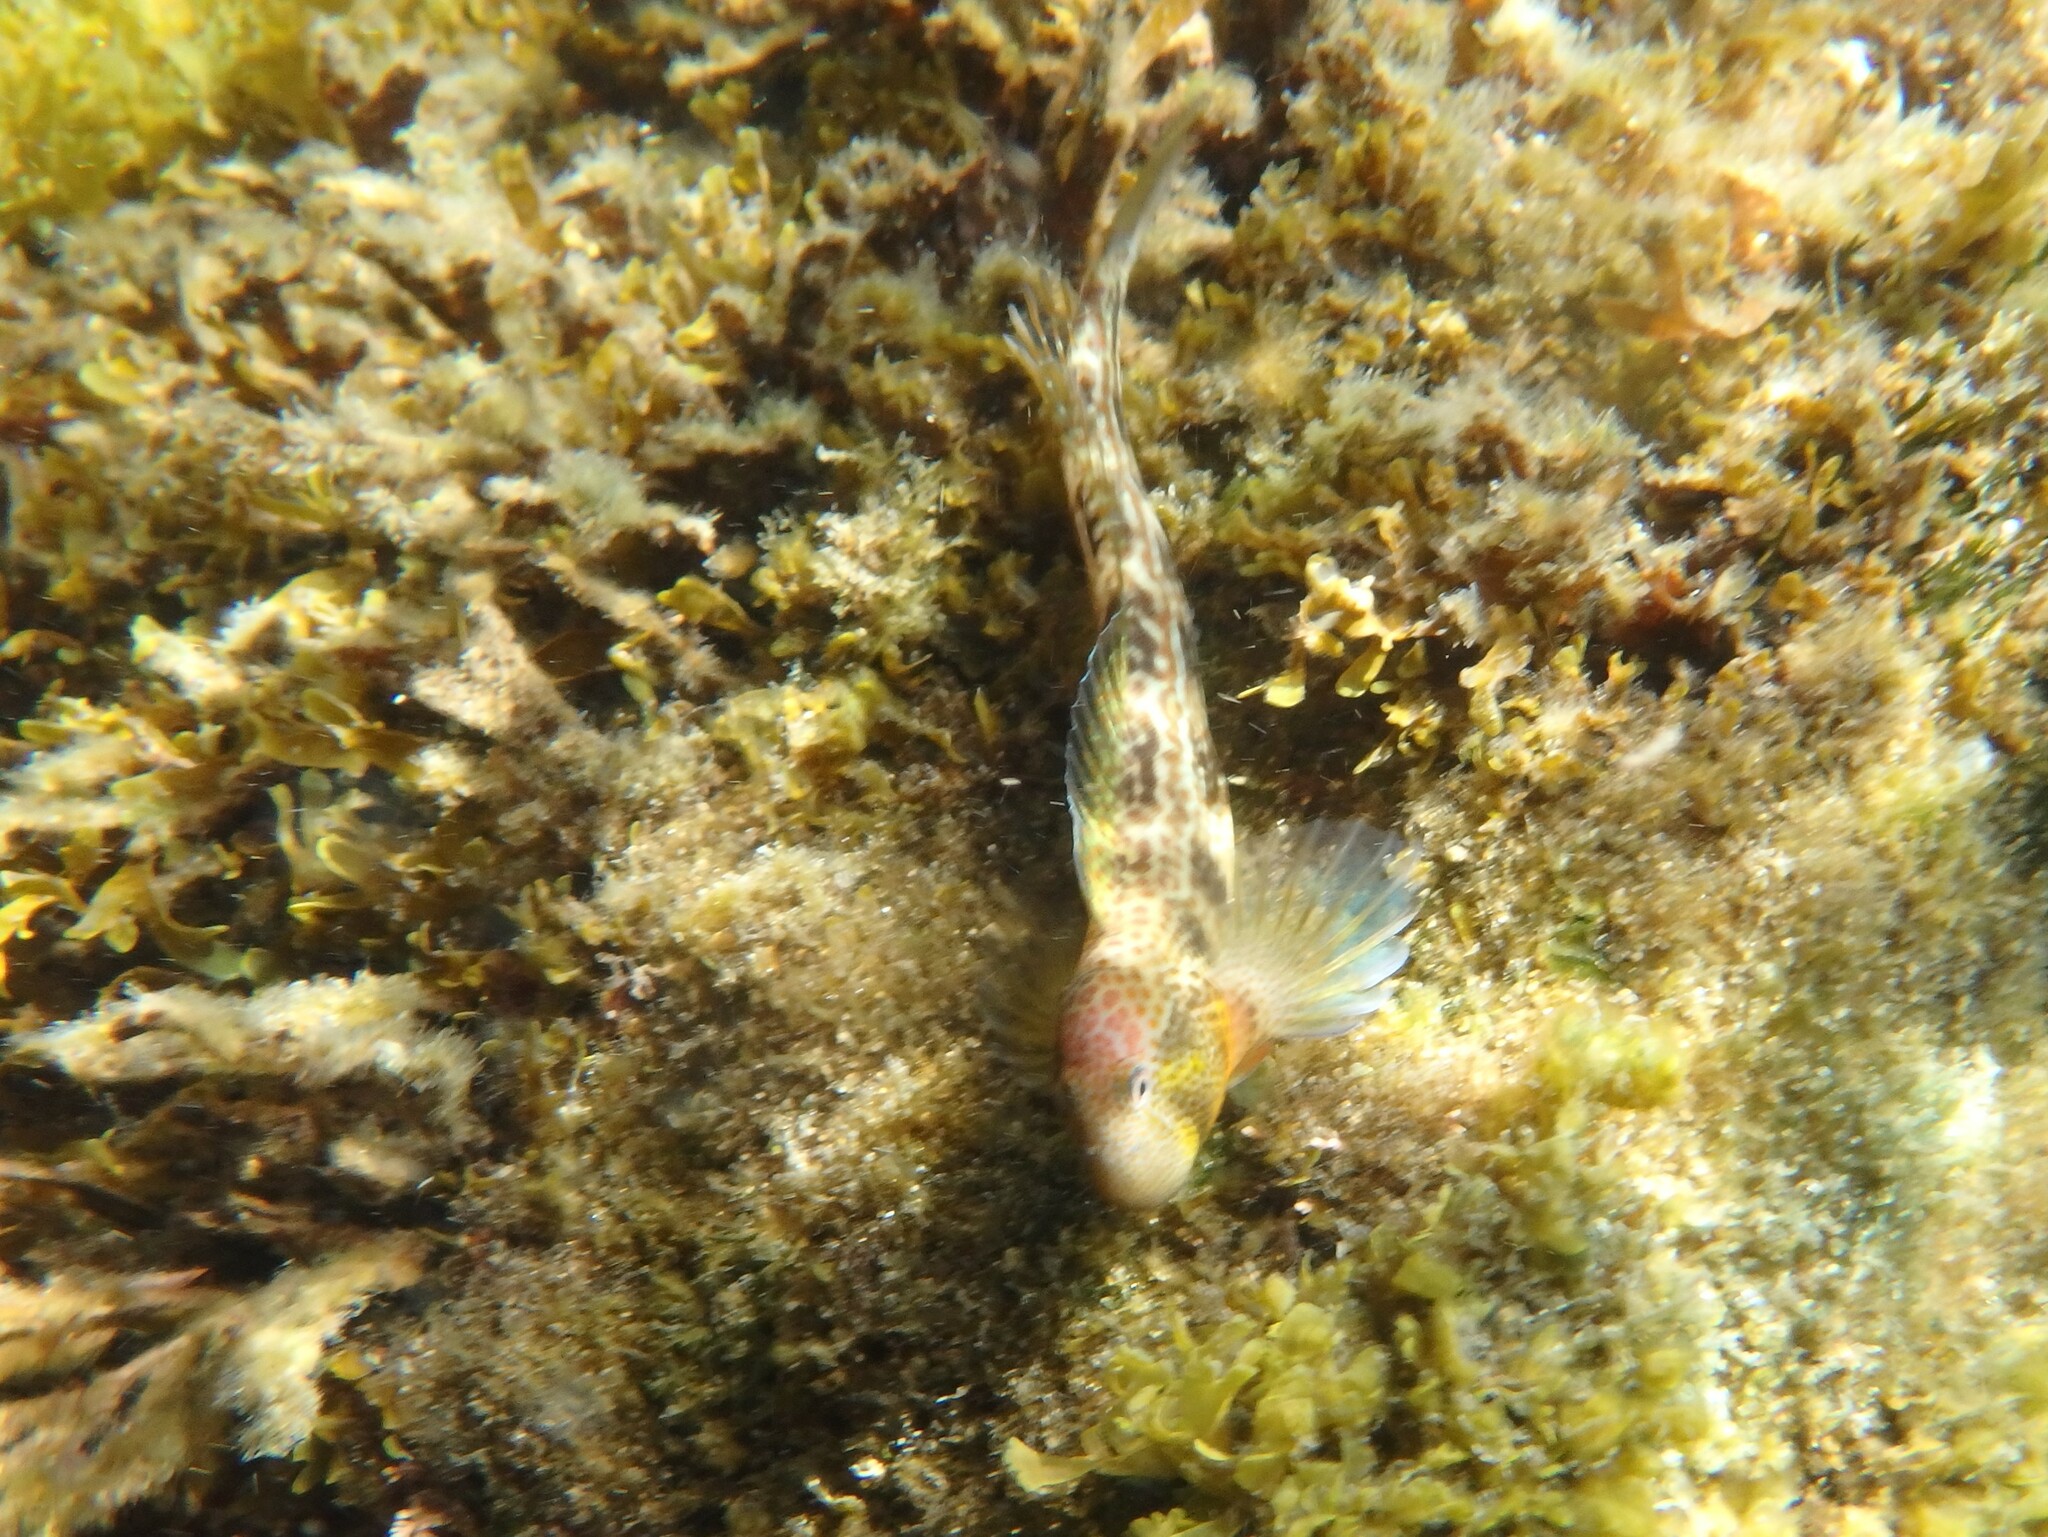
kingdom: Animalia
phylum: Chordata
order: Perciformes
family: Blenniidae
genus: Microlipophrys
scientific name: Microlipophrys canevae
